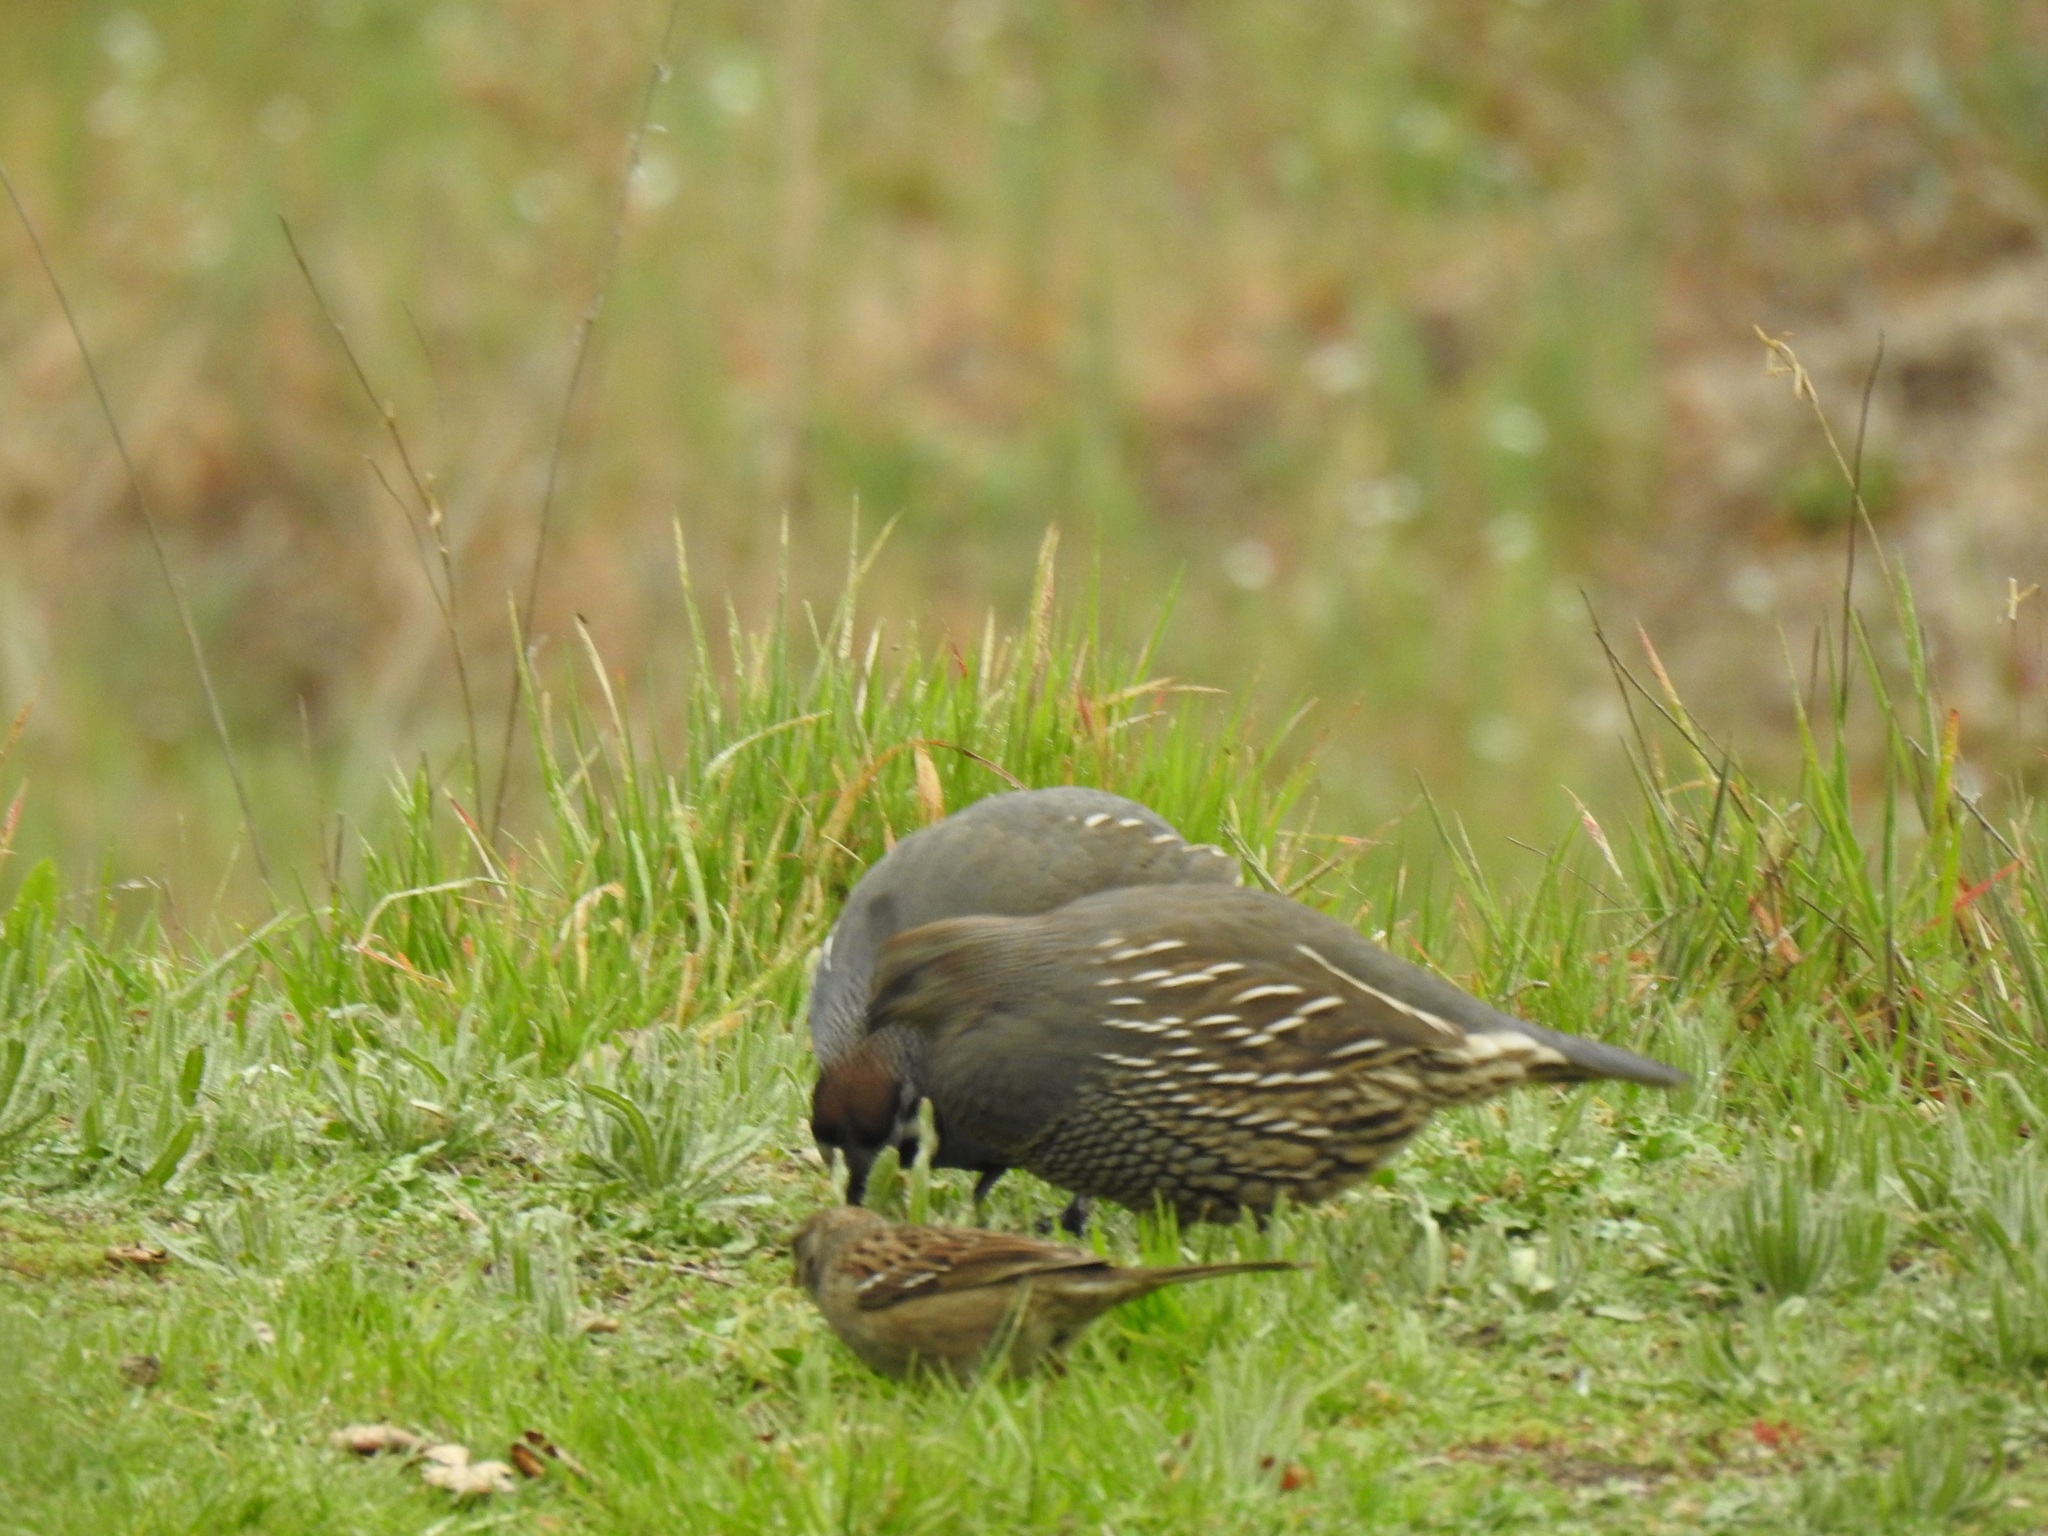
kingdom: Animalia
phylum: Chordata
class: Aves
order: Galliformes
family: Odontophoridae
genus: Callipepla
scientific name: Callipepla californica
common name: California quail
